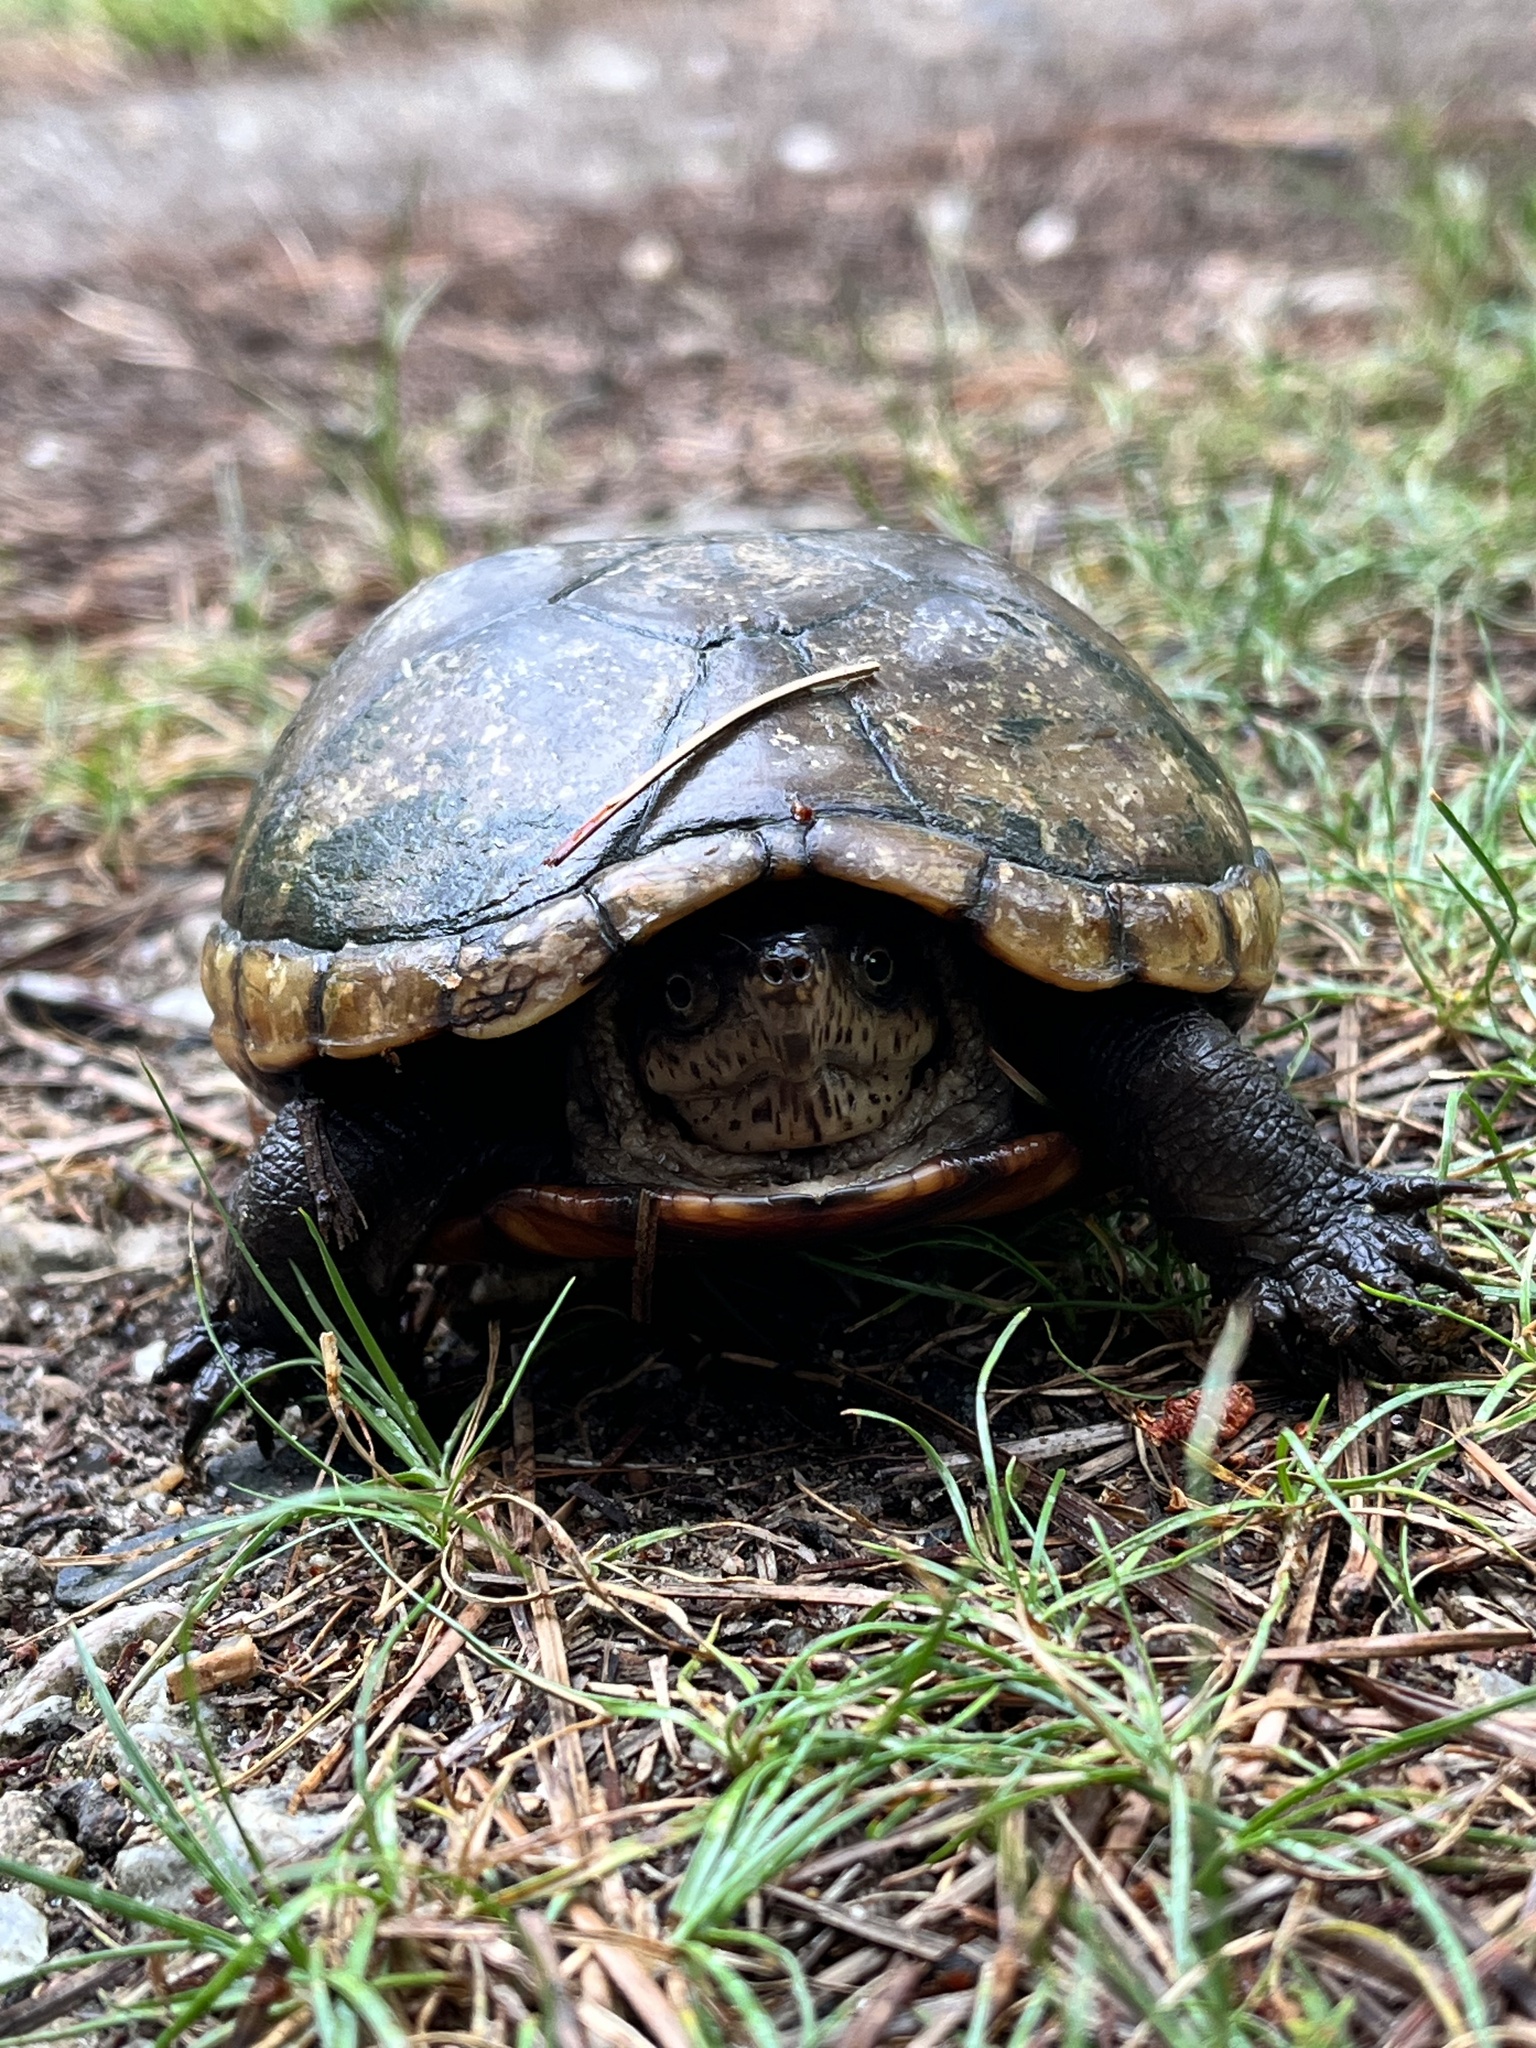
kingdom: Animalia
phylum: Chordata
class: Testudines
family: Kinosternidae
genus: Kinosternon
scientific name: Kinosternon subrubrum
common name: Eastern mud turtle
